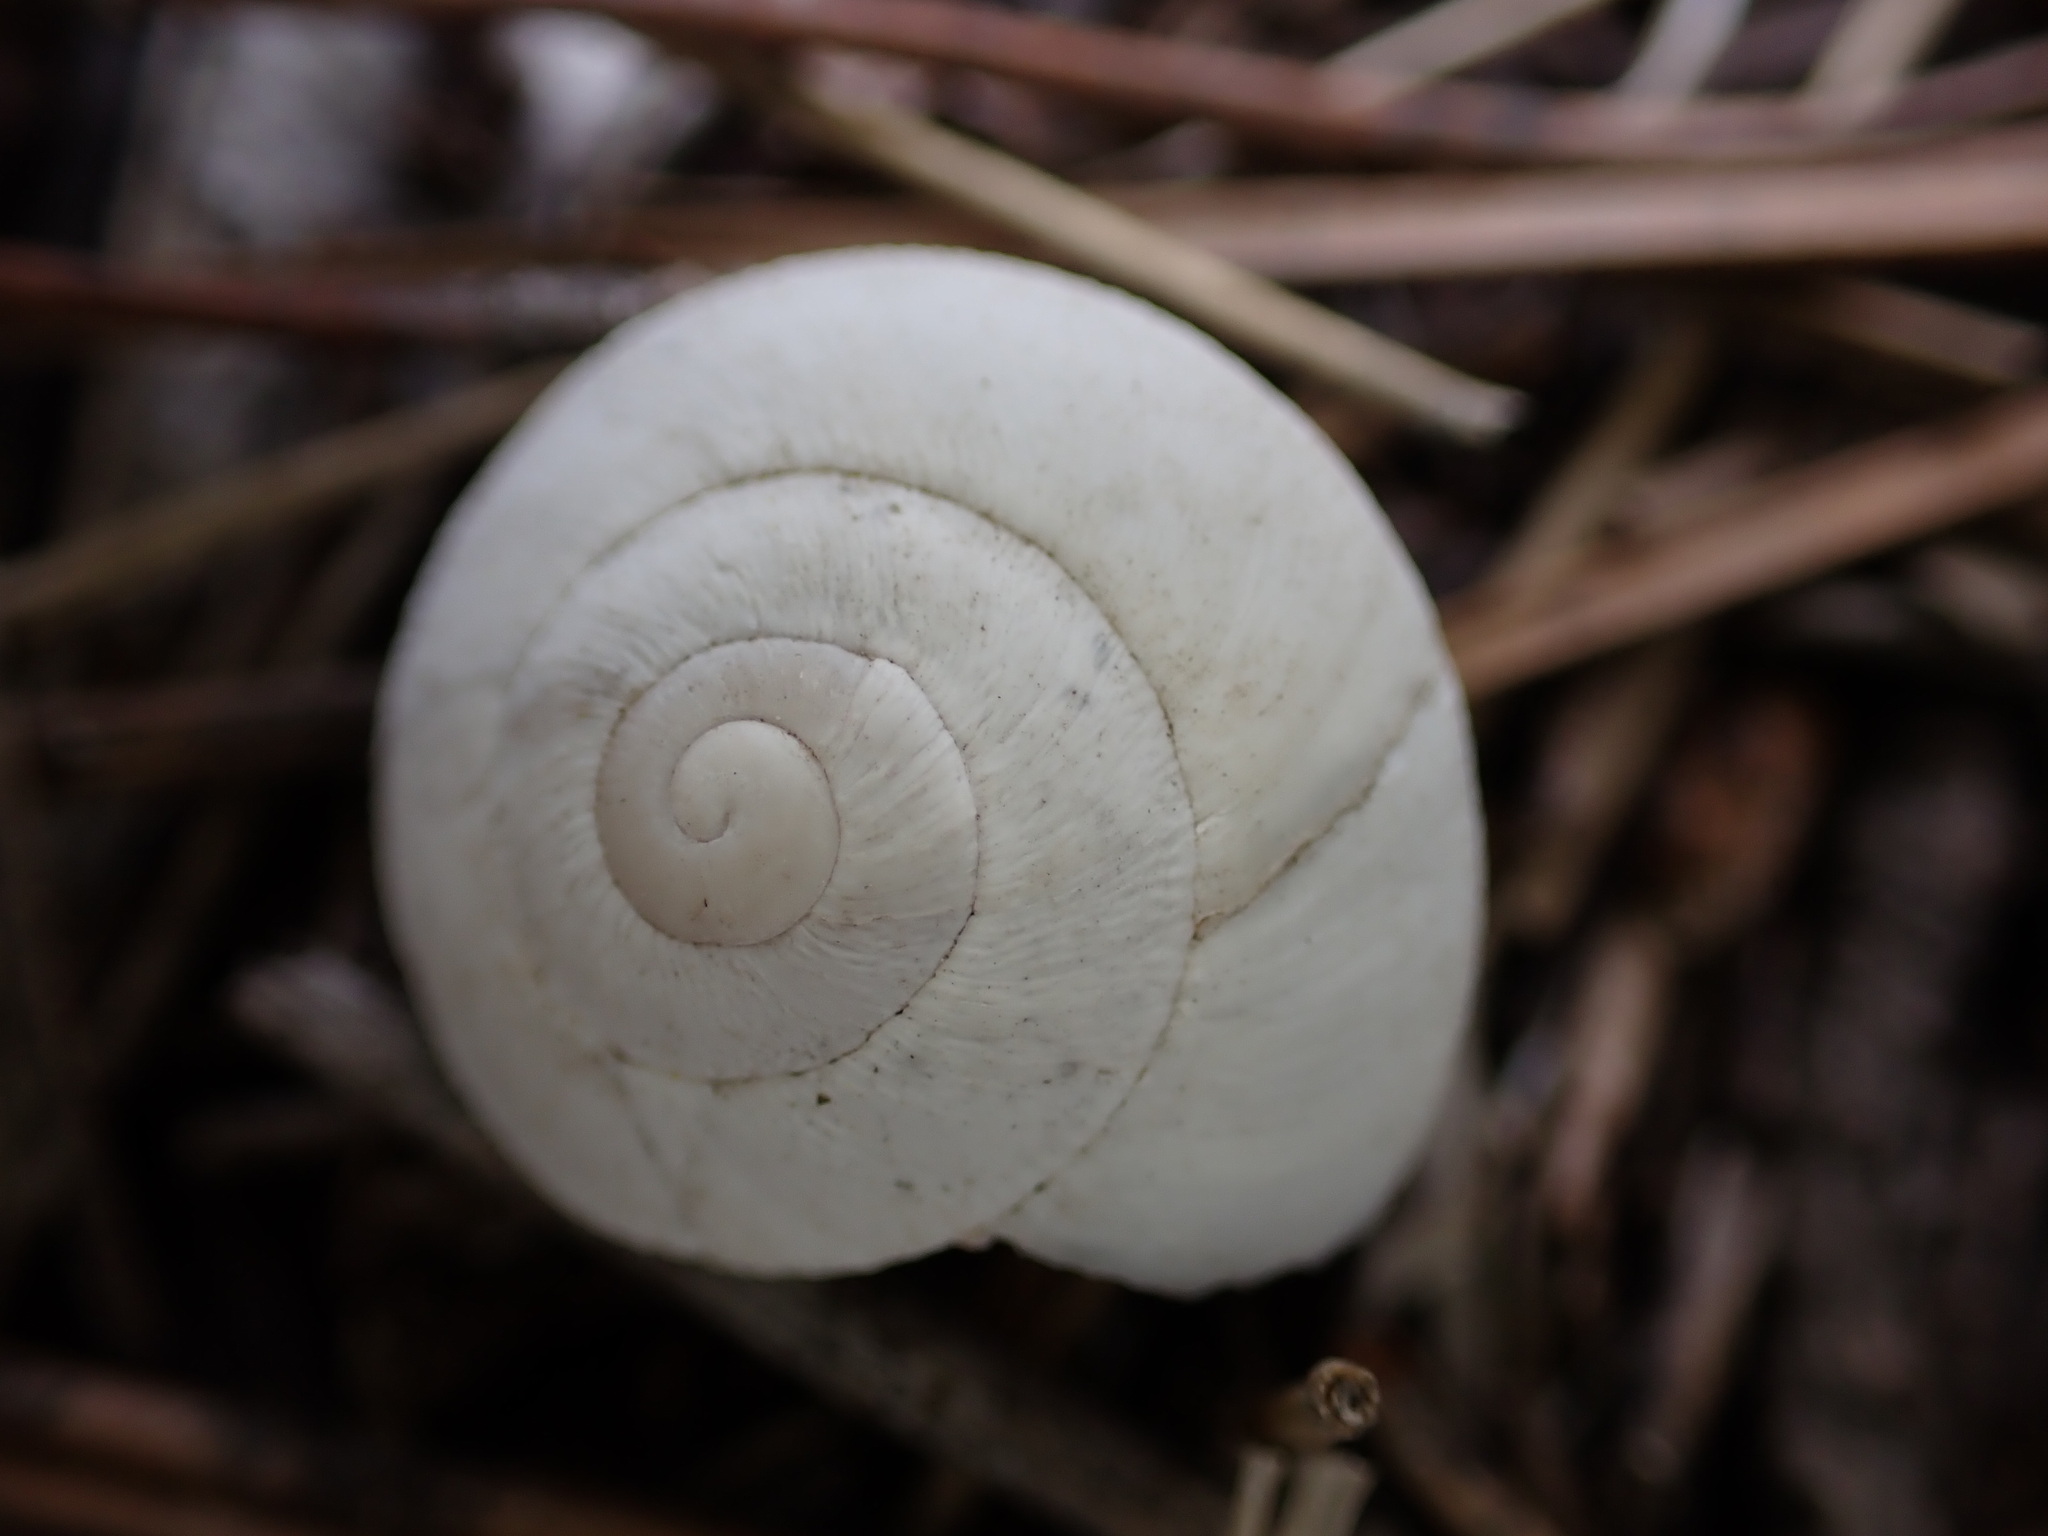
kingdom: Animalia
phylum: Mollusca
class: Gastropoda
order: Stylommatophora
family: Sphincterochilidae
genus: Sphincterochila
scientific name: Sphincterochila candidissima
